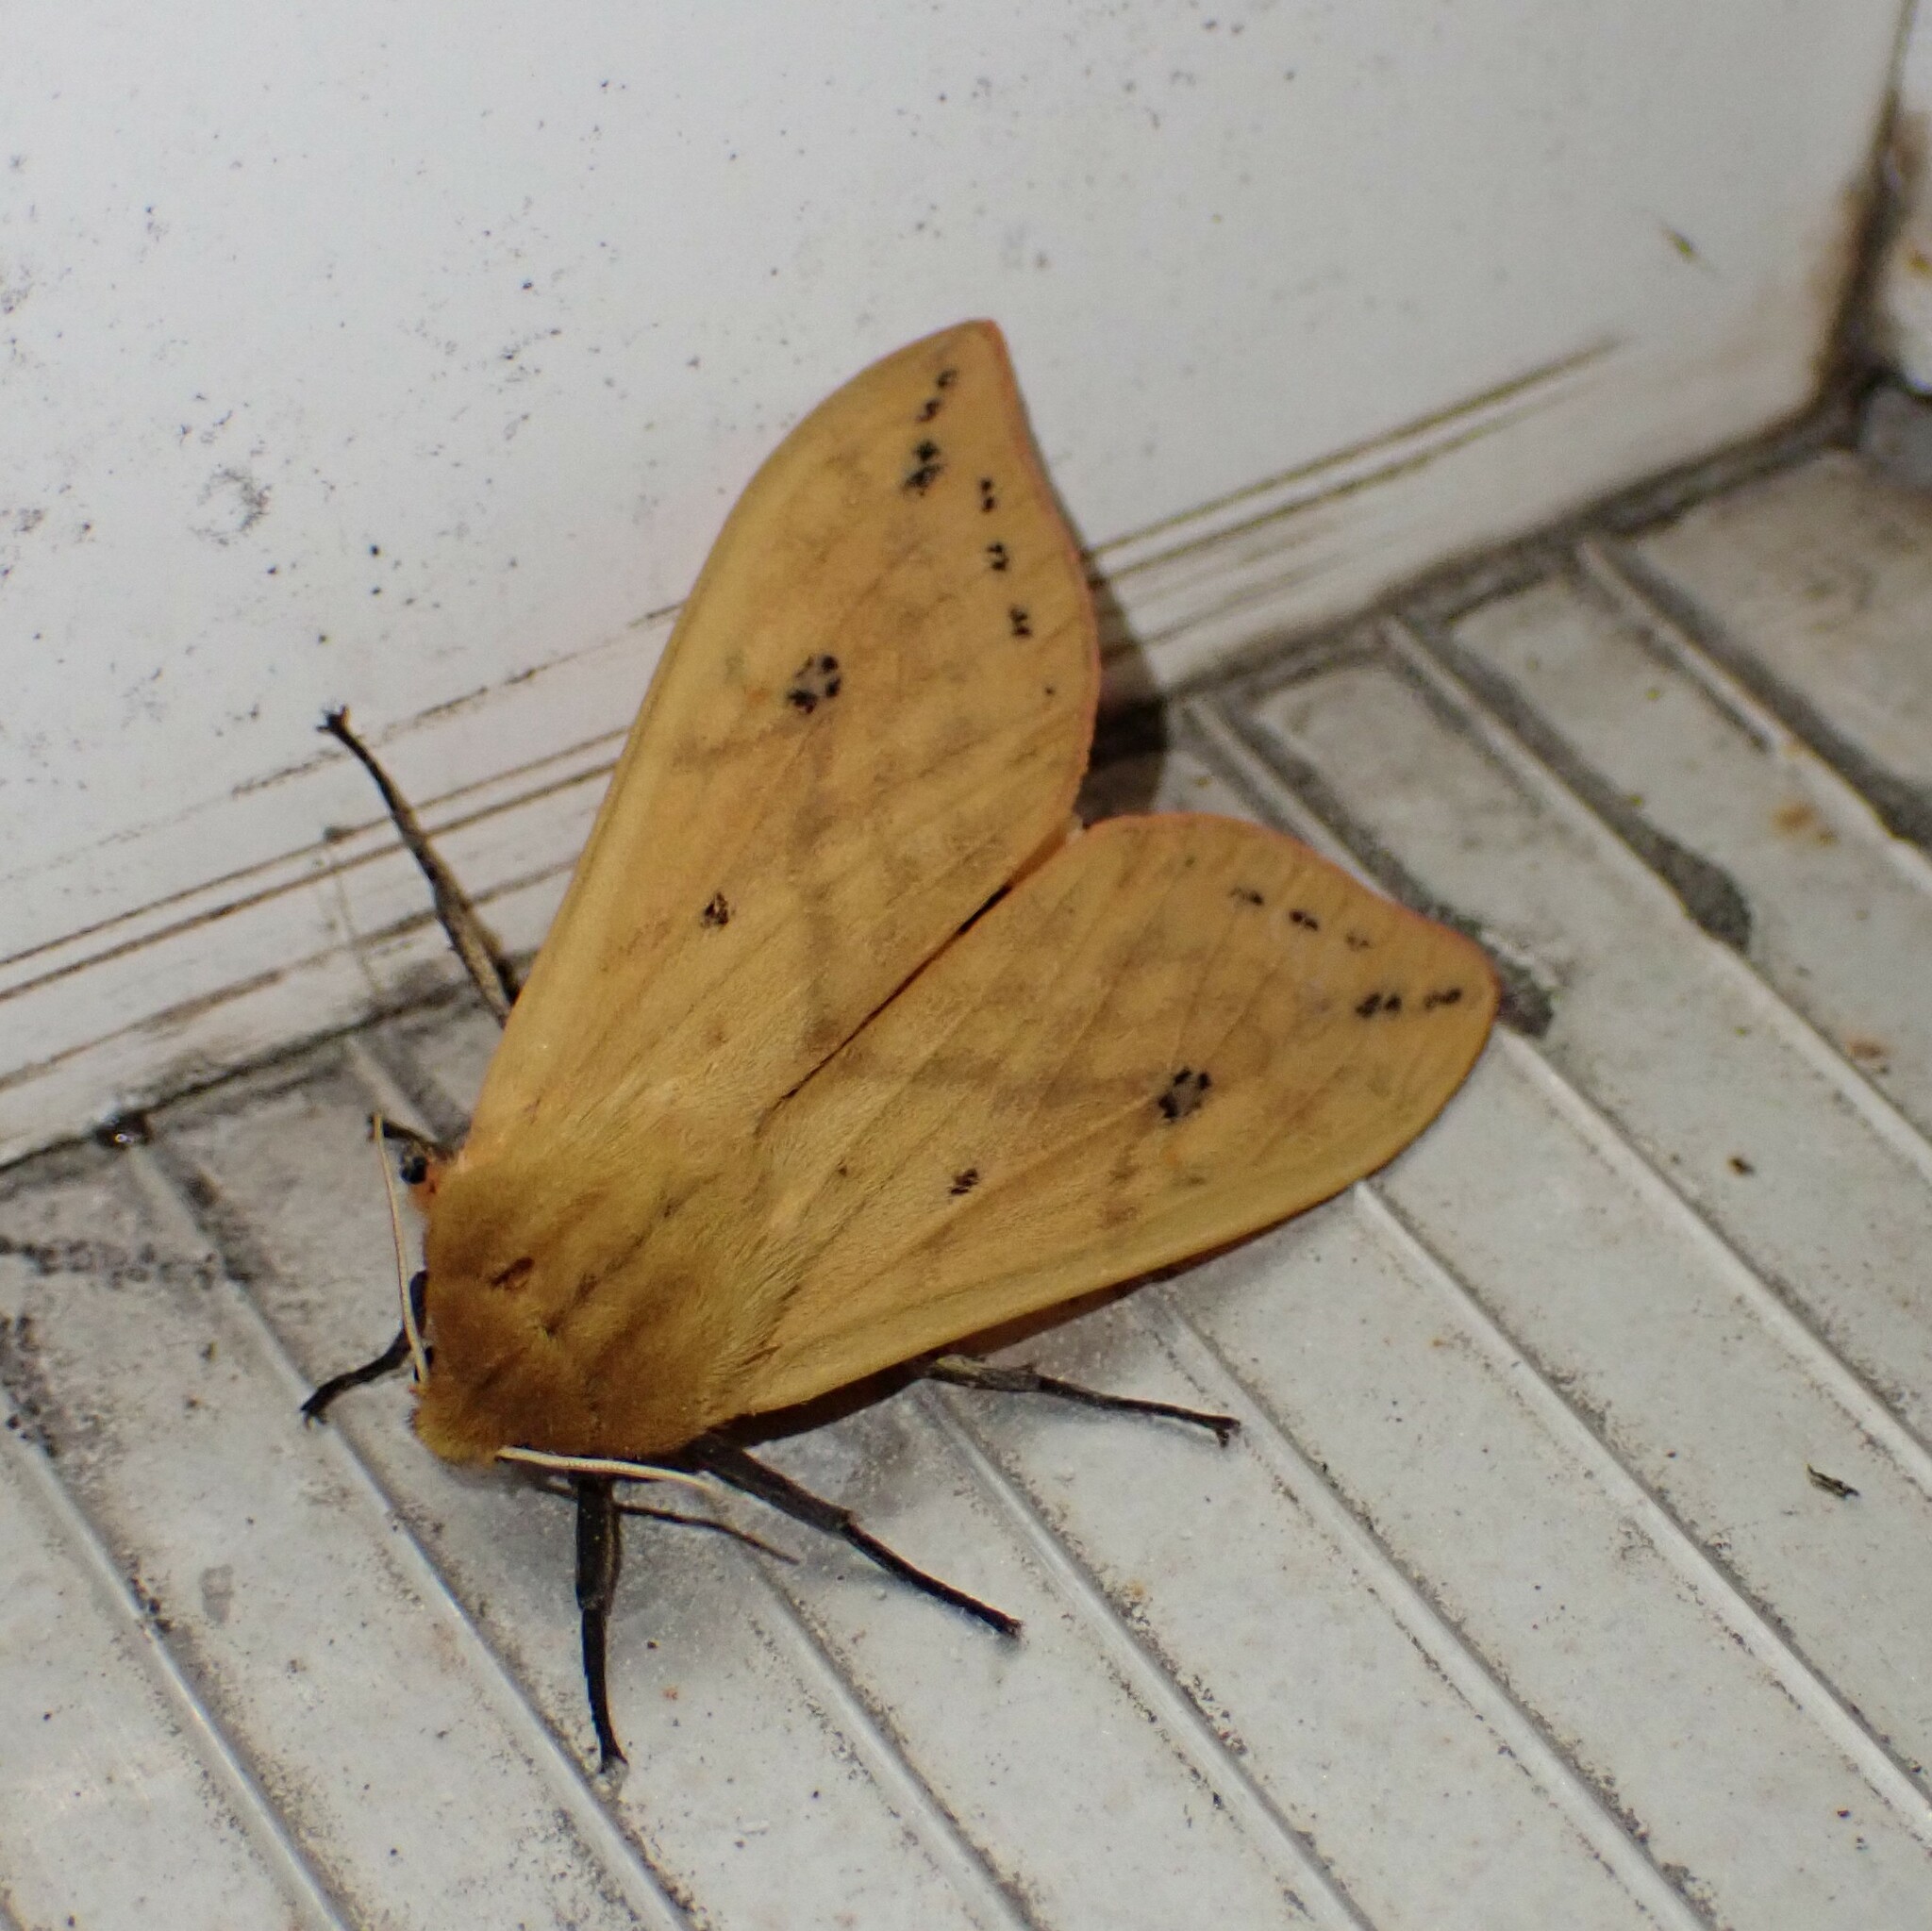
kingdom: Animalia
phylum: Arthropoda
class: Insecta
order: Lepidoptera
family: Erebidae
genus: Pyrrharctia
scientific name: Pyrrharctia isabella
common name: Isabella tiger moth
